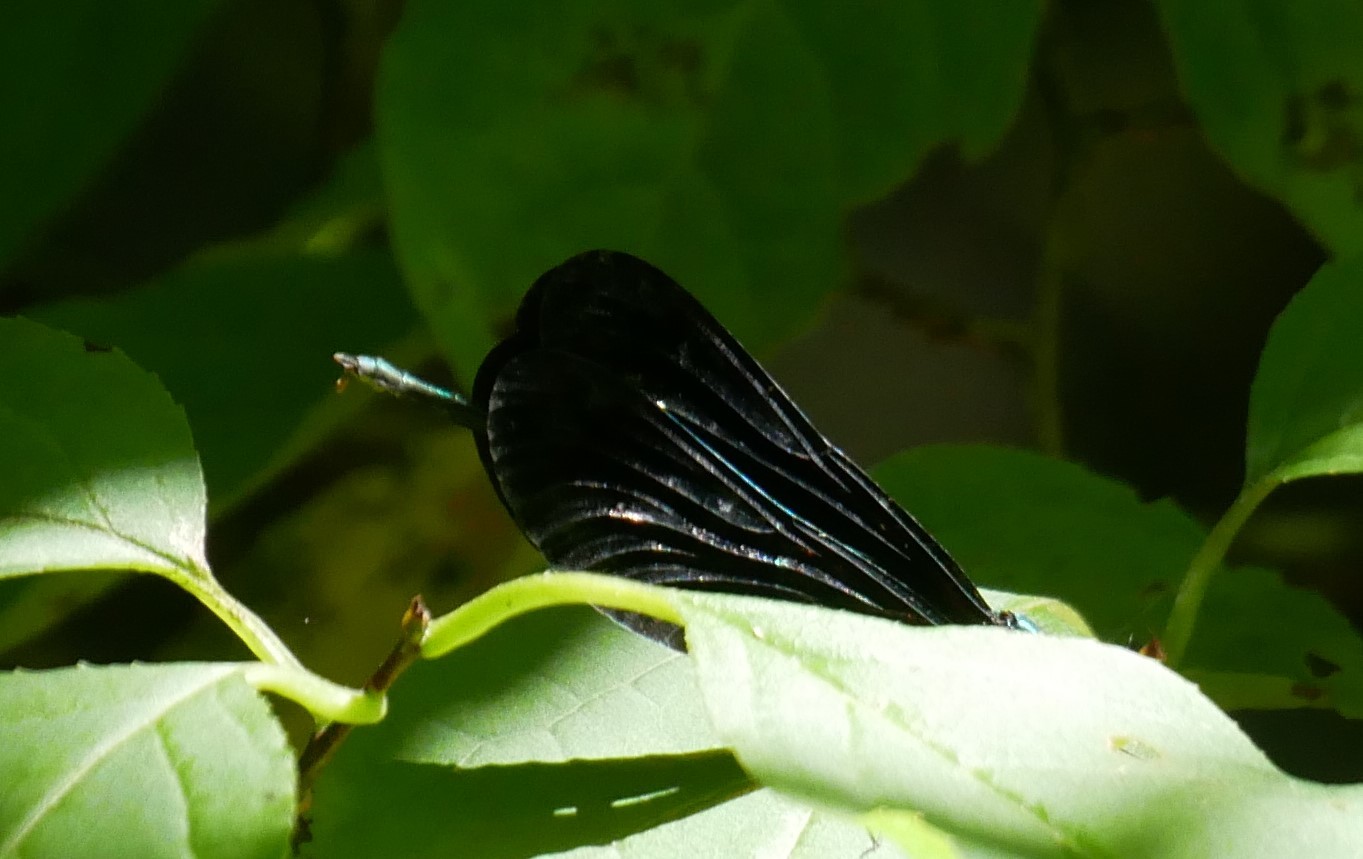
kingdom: Animalia
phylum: Arthropoda
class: Insecta
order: Odonata
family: Calopterygidae
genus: Calopteryx
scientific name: Calopteryx maculata
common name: Ebony jewelwing
